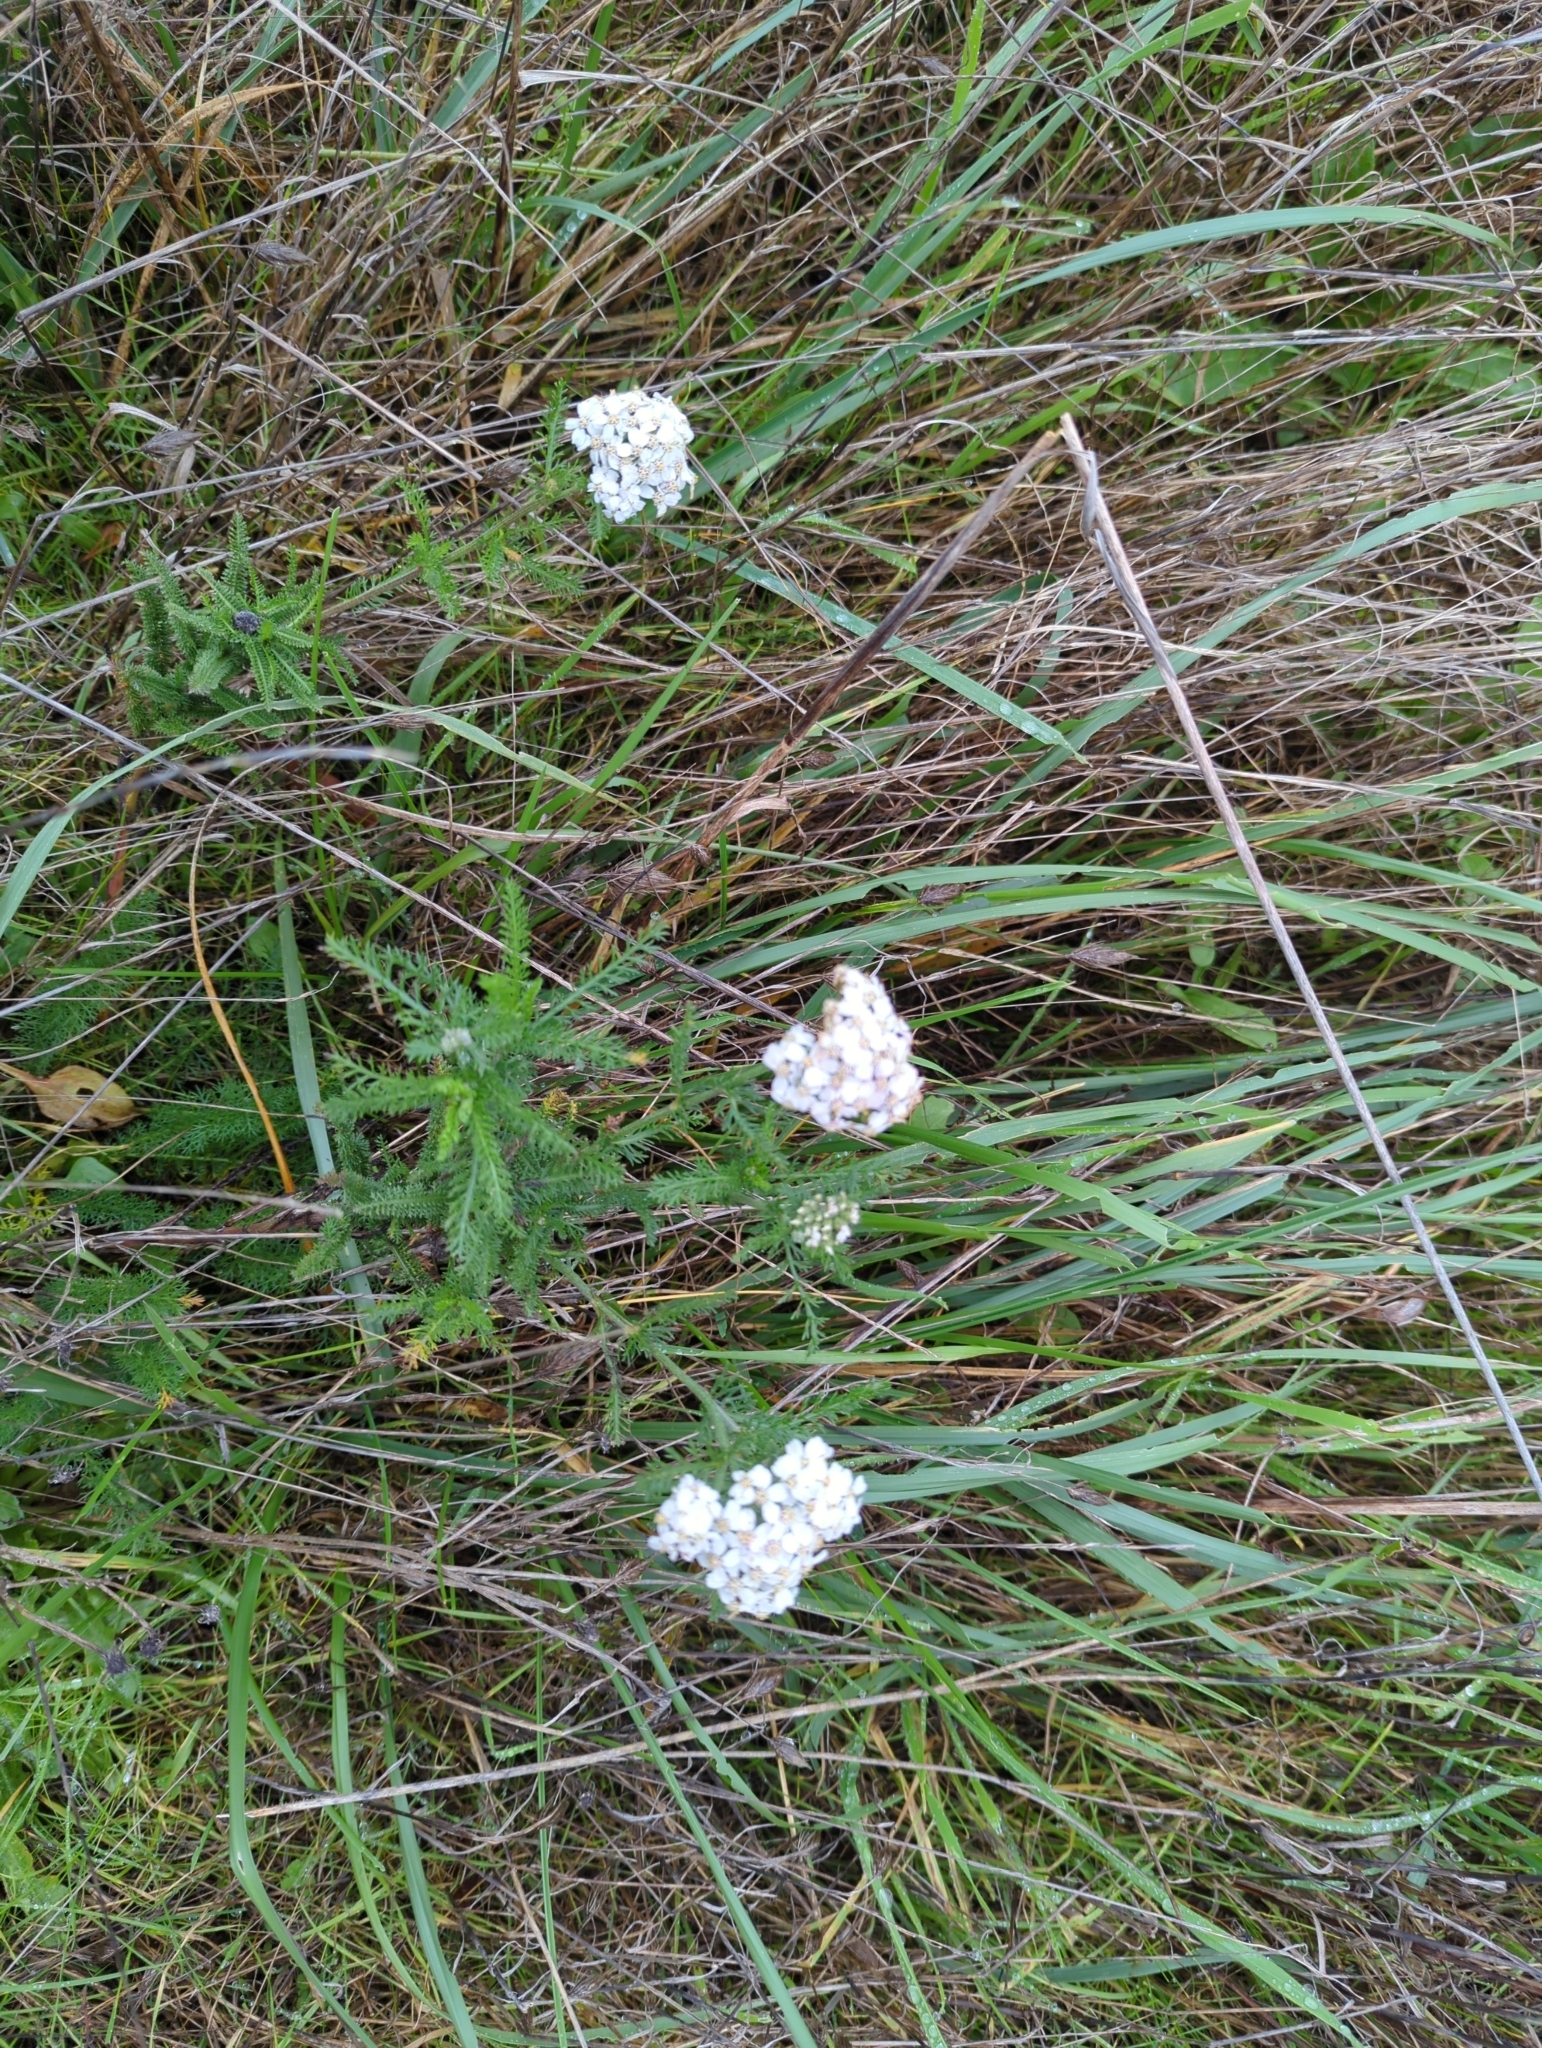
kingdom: Plantae
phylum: Tracheophyta
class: Magnoliopsida
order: Asterales
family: Asteraceae
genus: Achillea
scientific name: Achillea millefolium
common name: Yarrow
